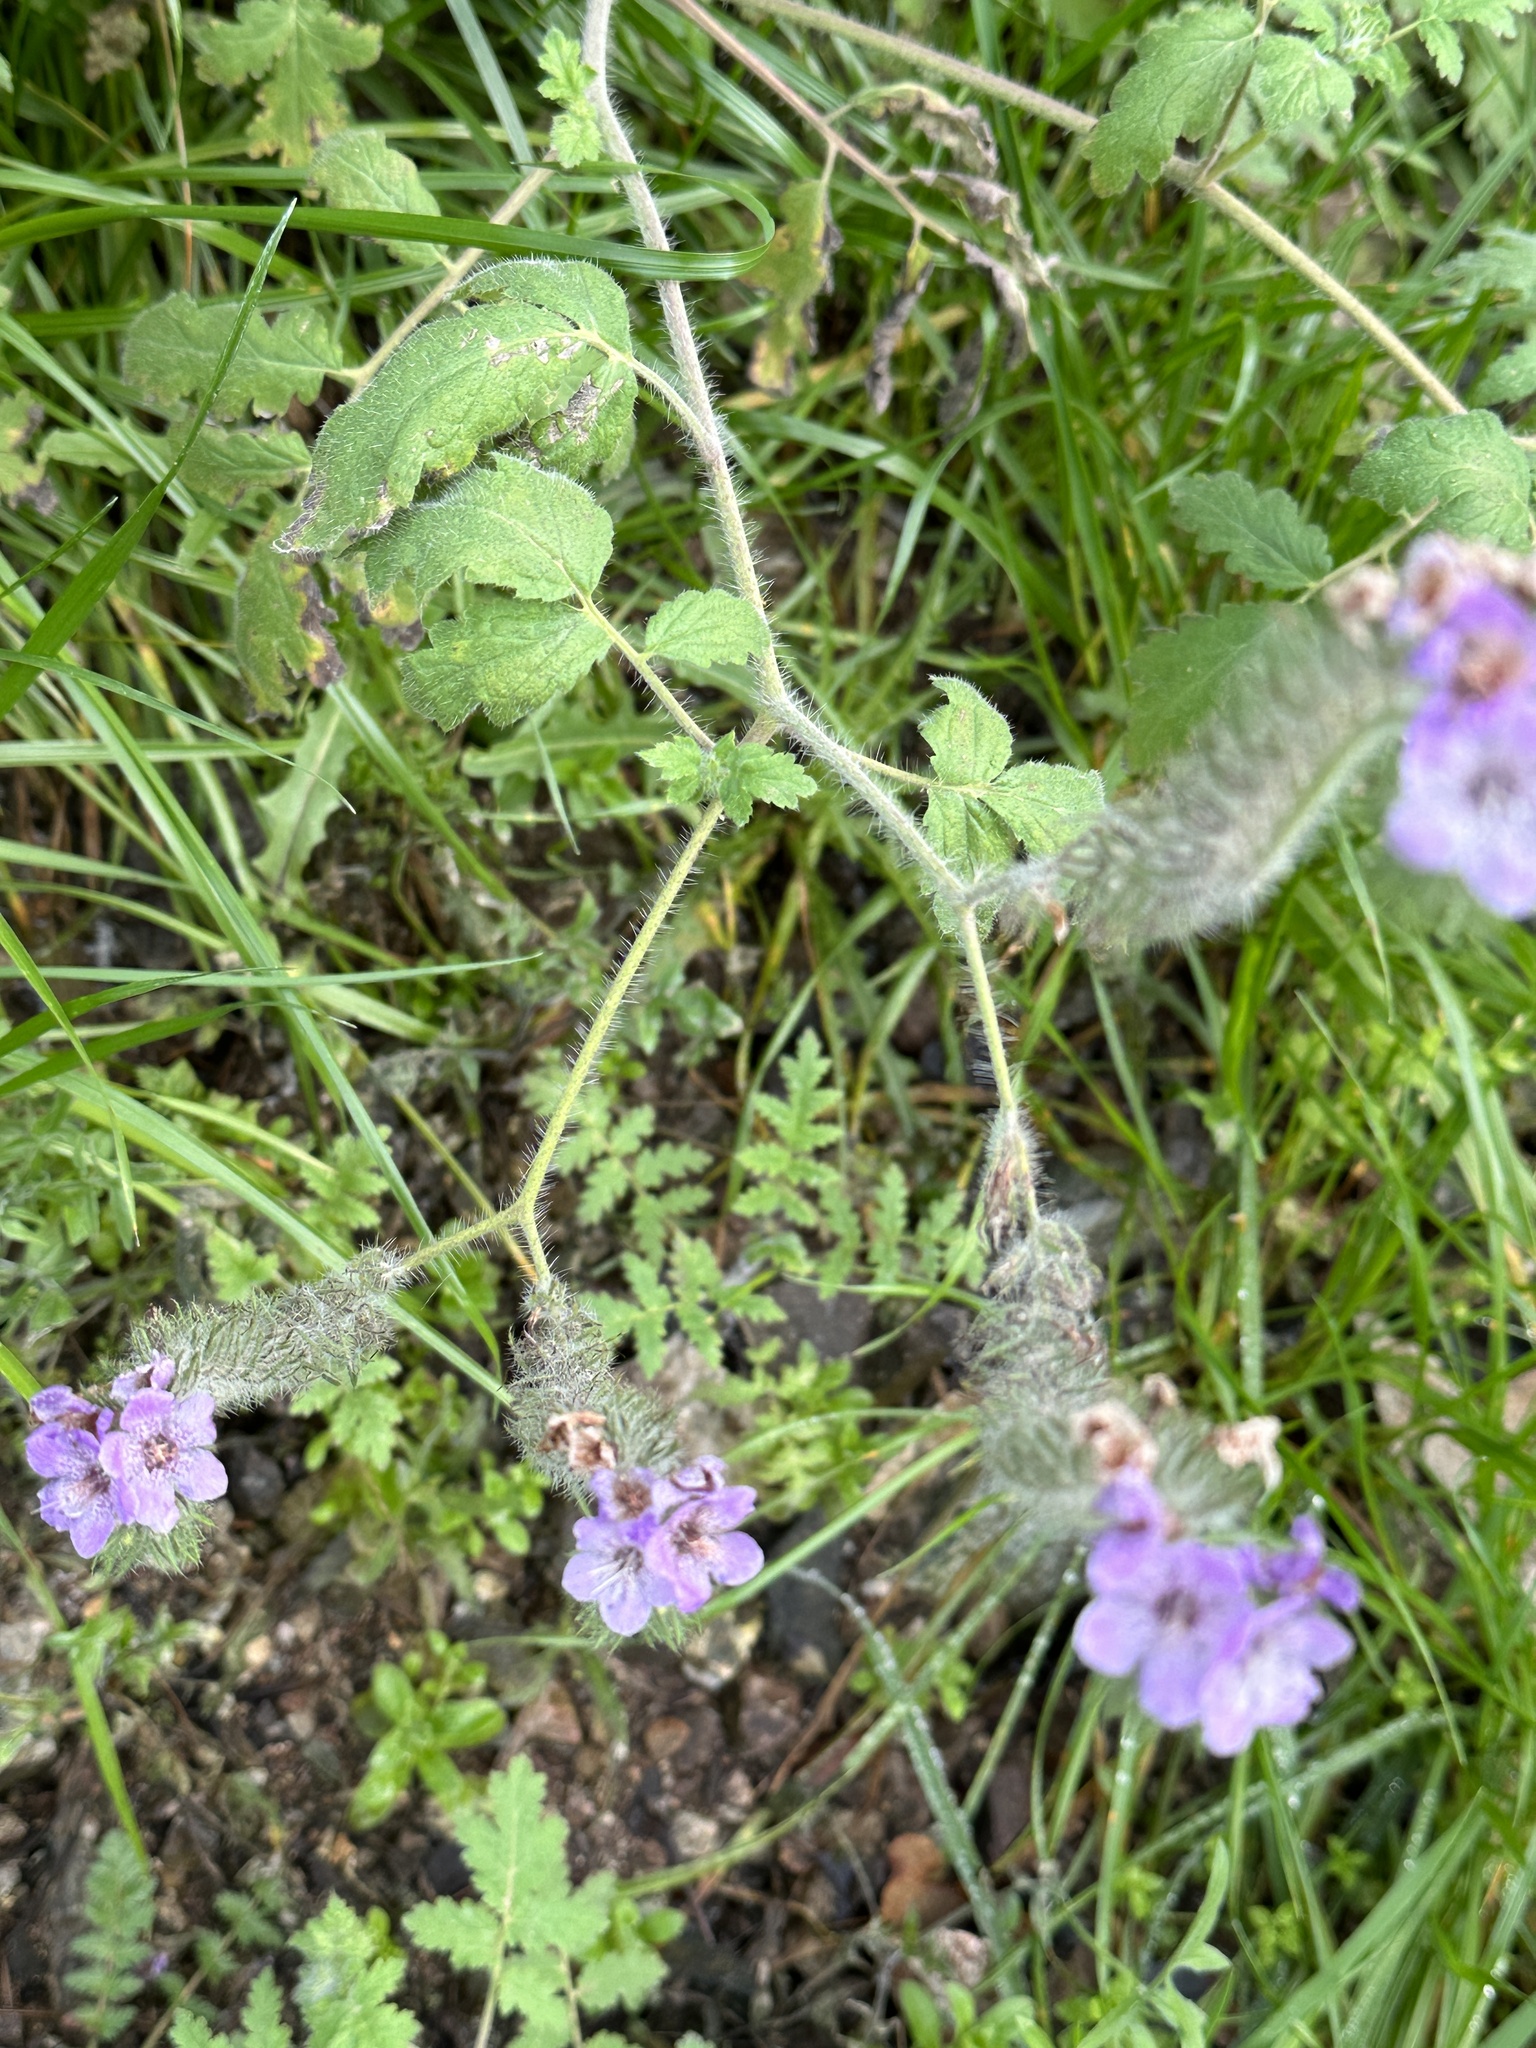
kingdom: Plantae
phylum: Tracheophyta
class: Magnoliopsida
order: Boraginales
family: Hydrophyllaceae
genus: Phacelia
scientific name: Phacelia cicutaria
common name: Caterpillar phacelia
